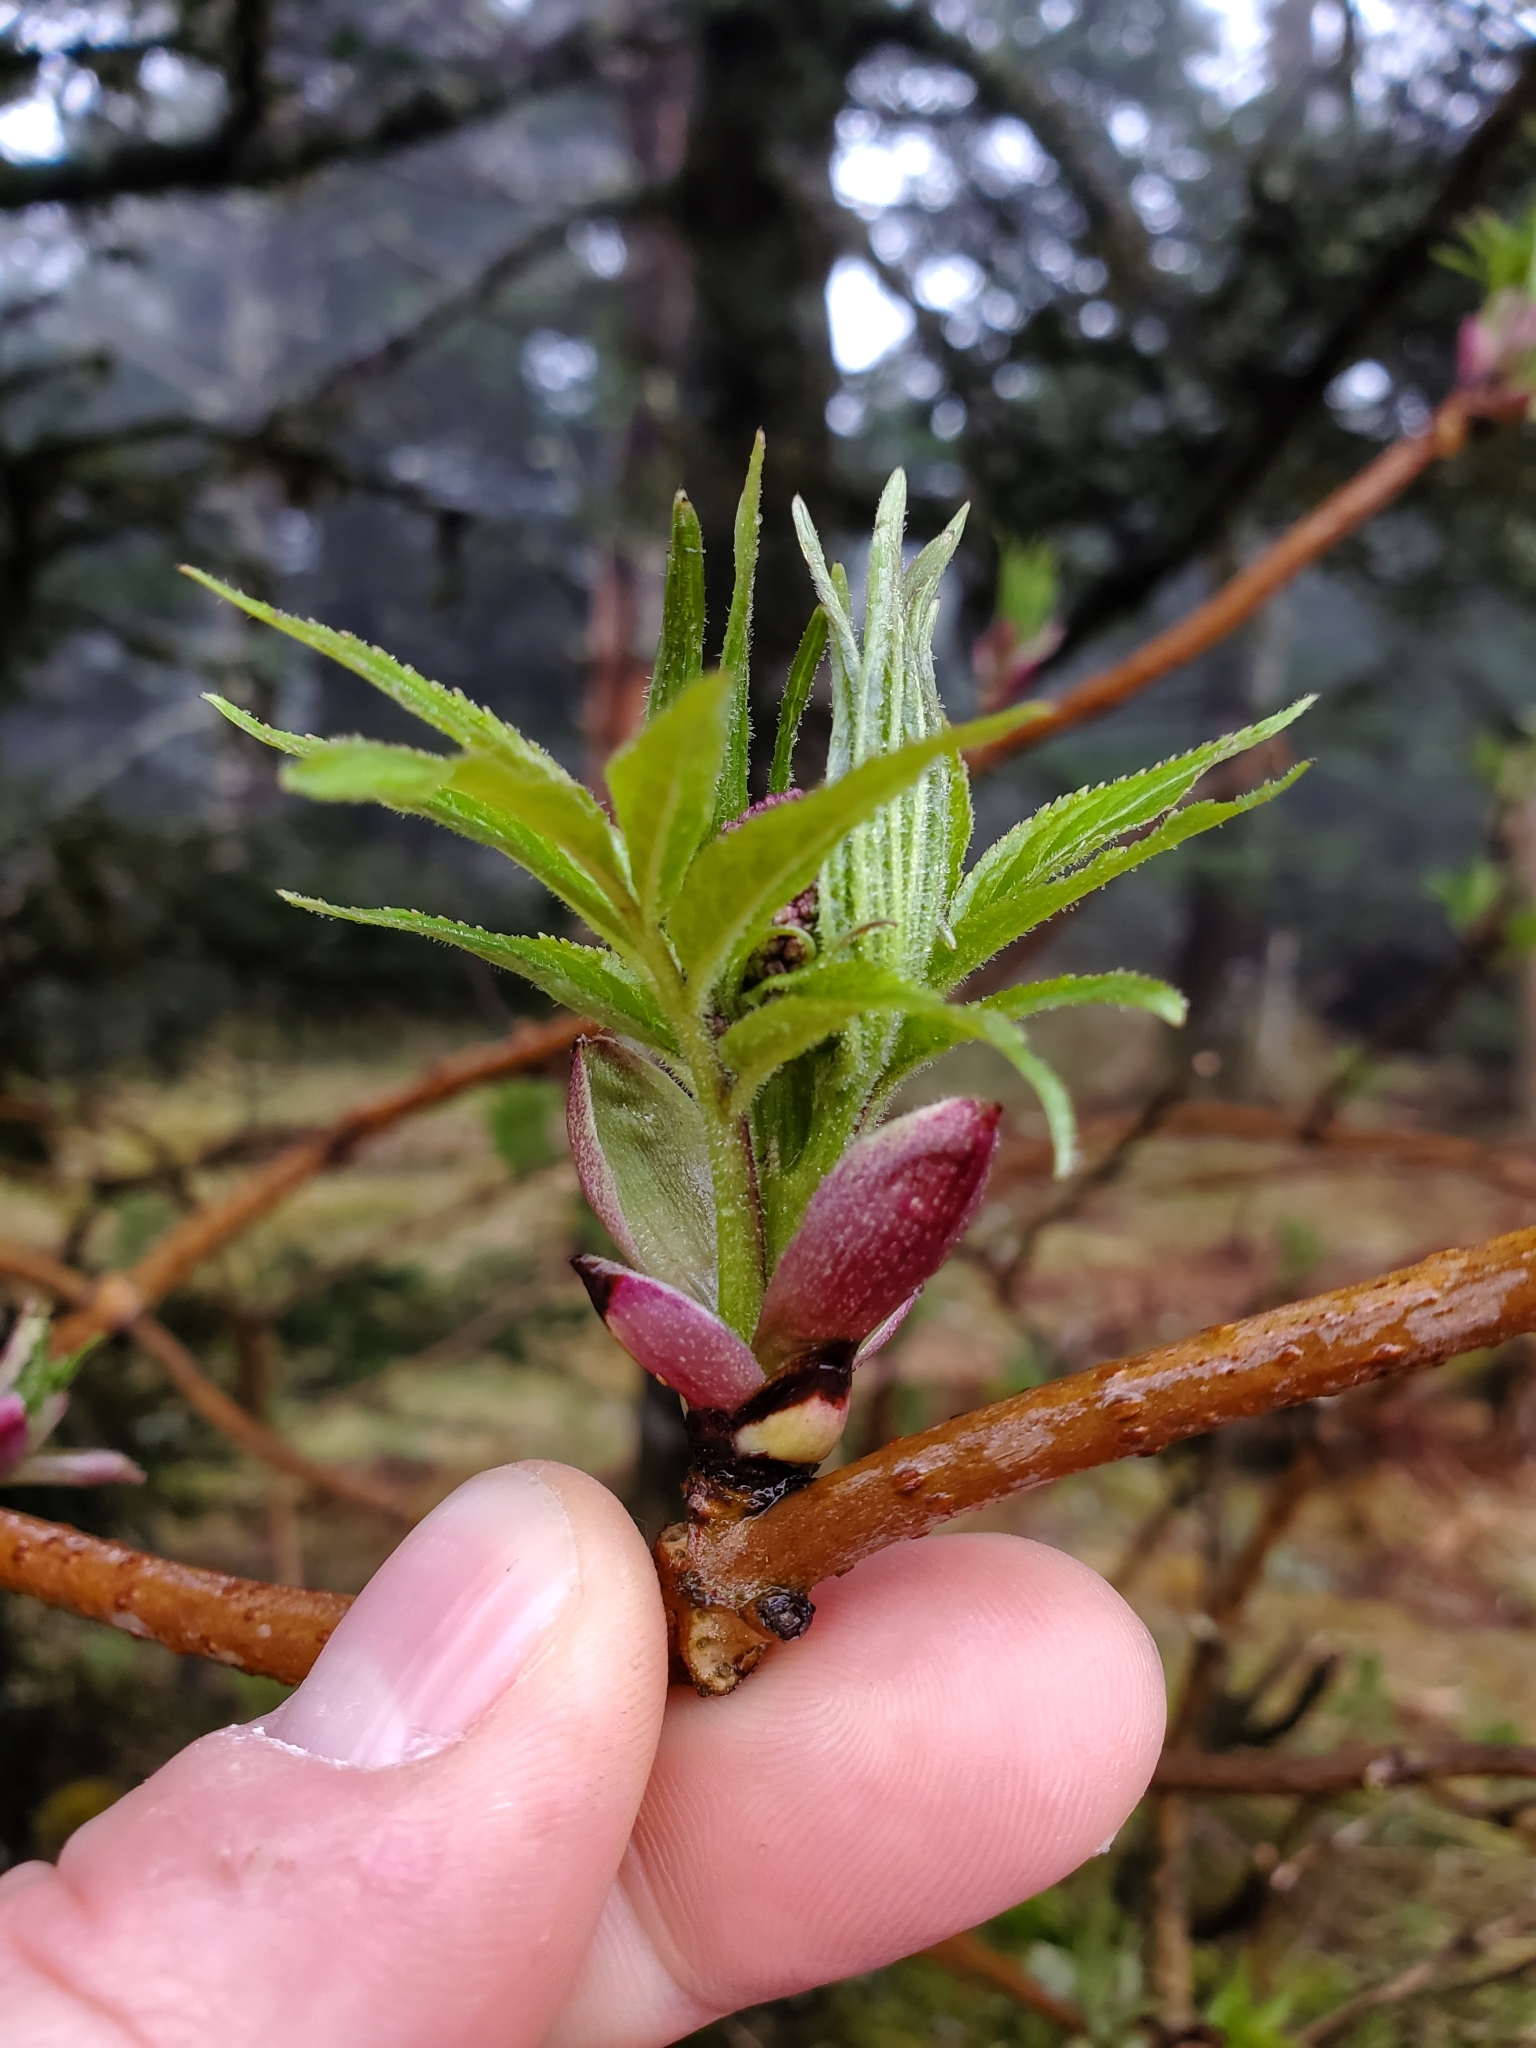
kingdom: Plantae
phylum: Tracheophyta
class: Magnoliopsida
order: Dipsacales
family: Viburnaceae
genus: Sambucus
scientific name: Sambucus racemosa
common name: Red-berried elder
